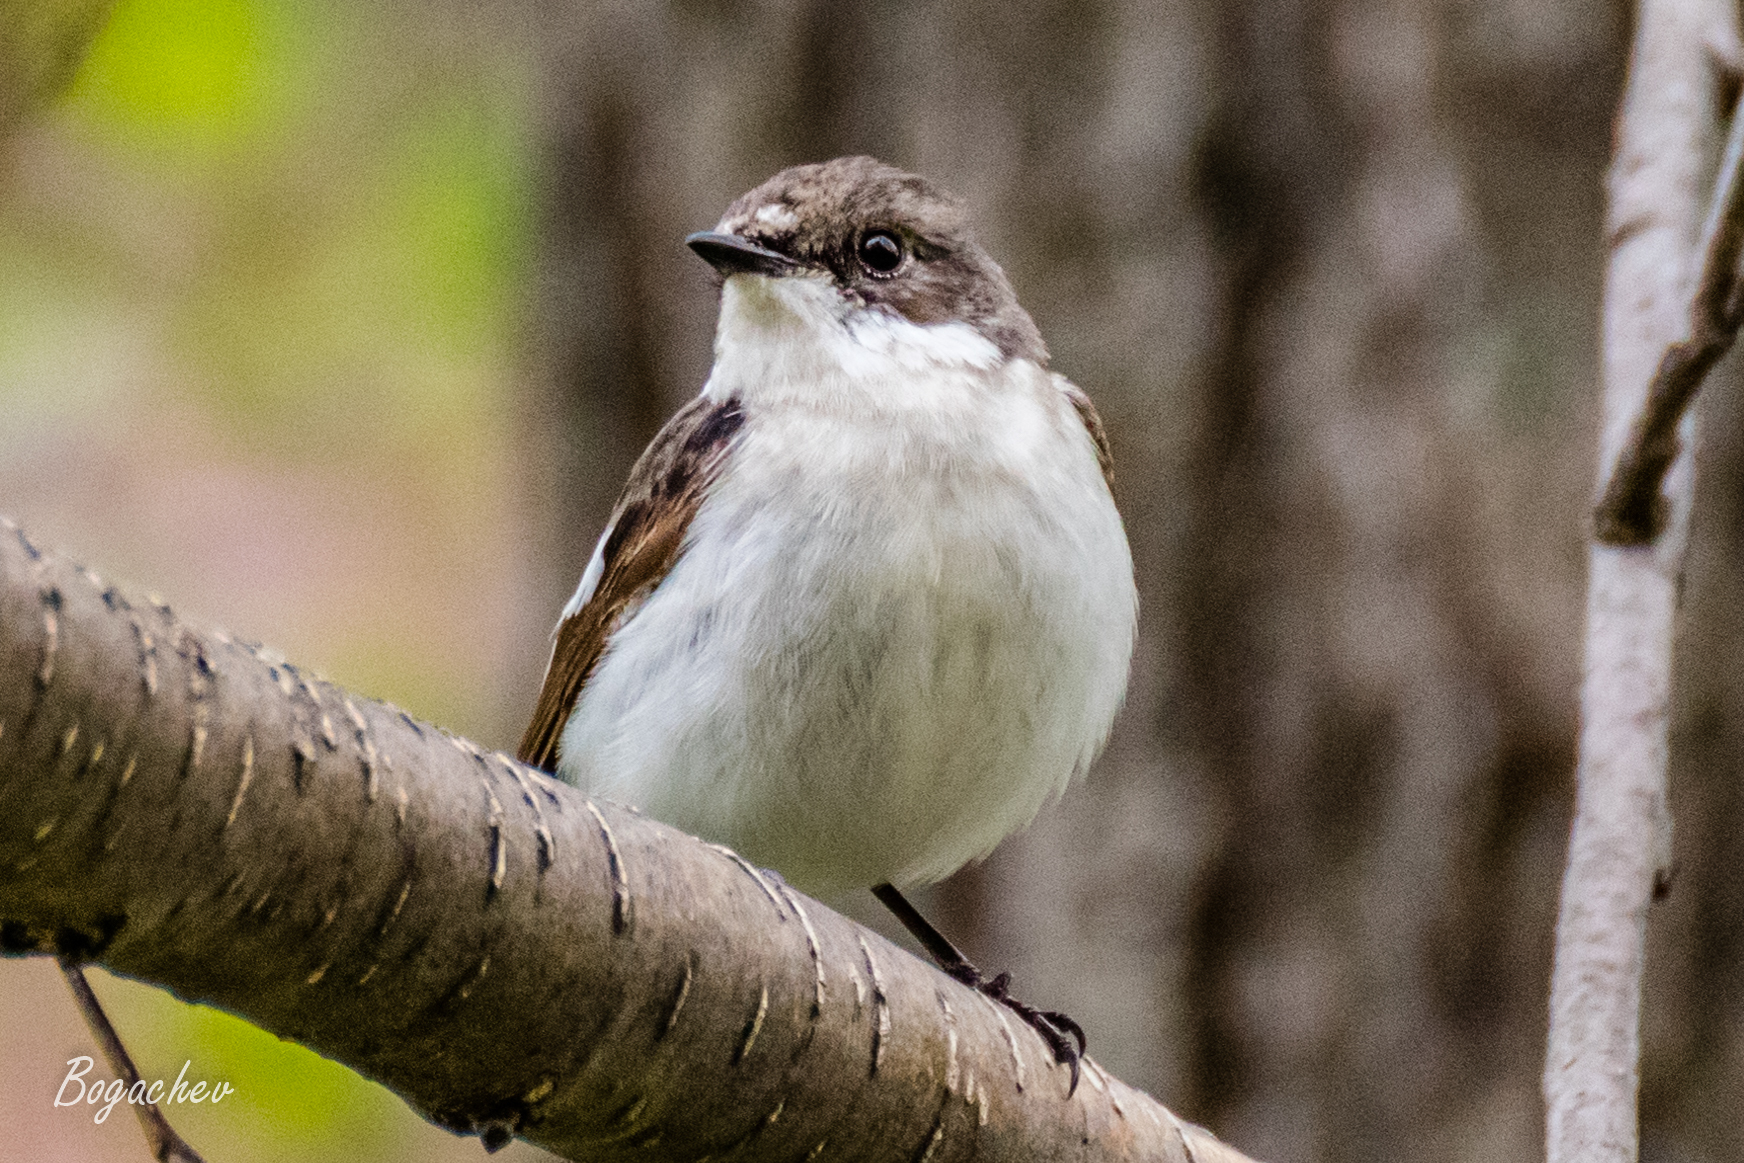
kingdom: Animalia
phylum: Chordata
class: Aves
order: Passeriformes
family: Muscicapidae
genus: Ficedula
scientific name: Ficedula hypoleuca
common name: European pied flycatcher
